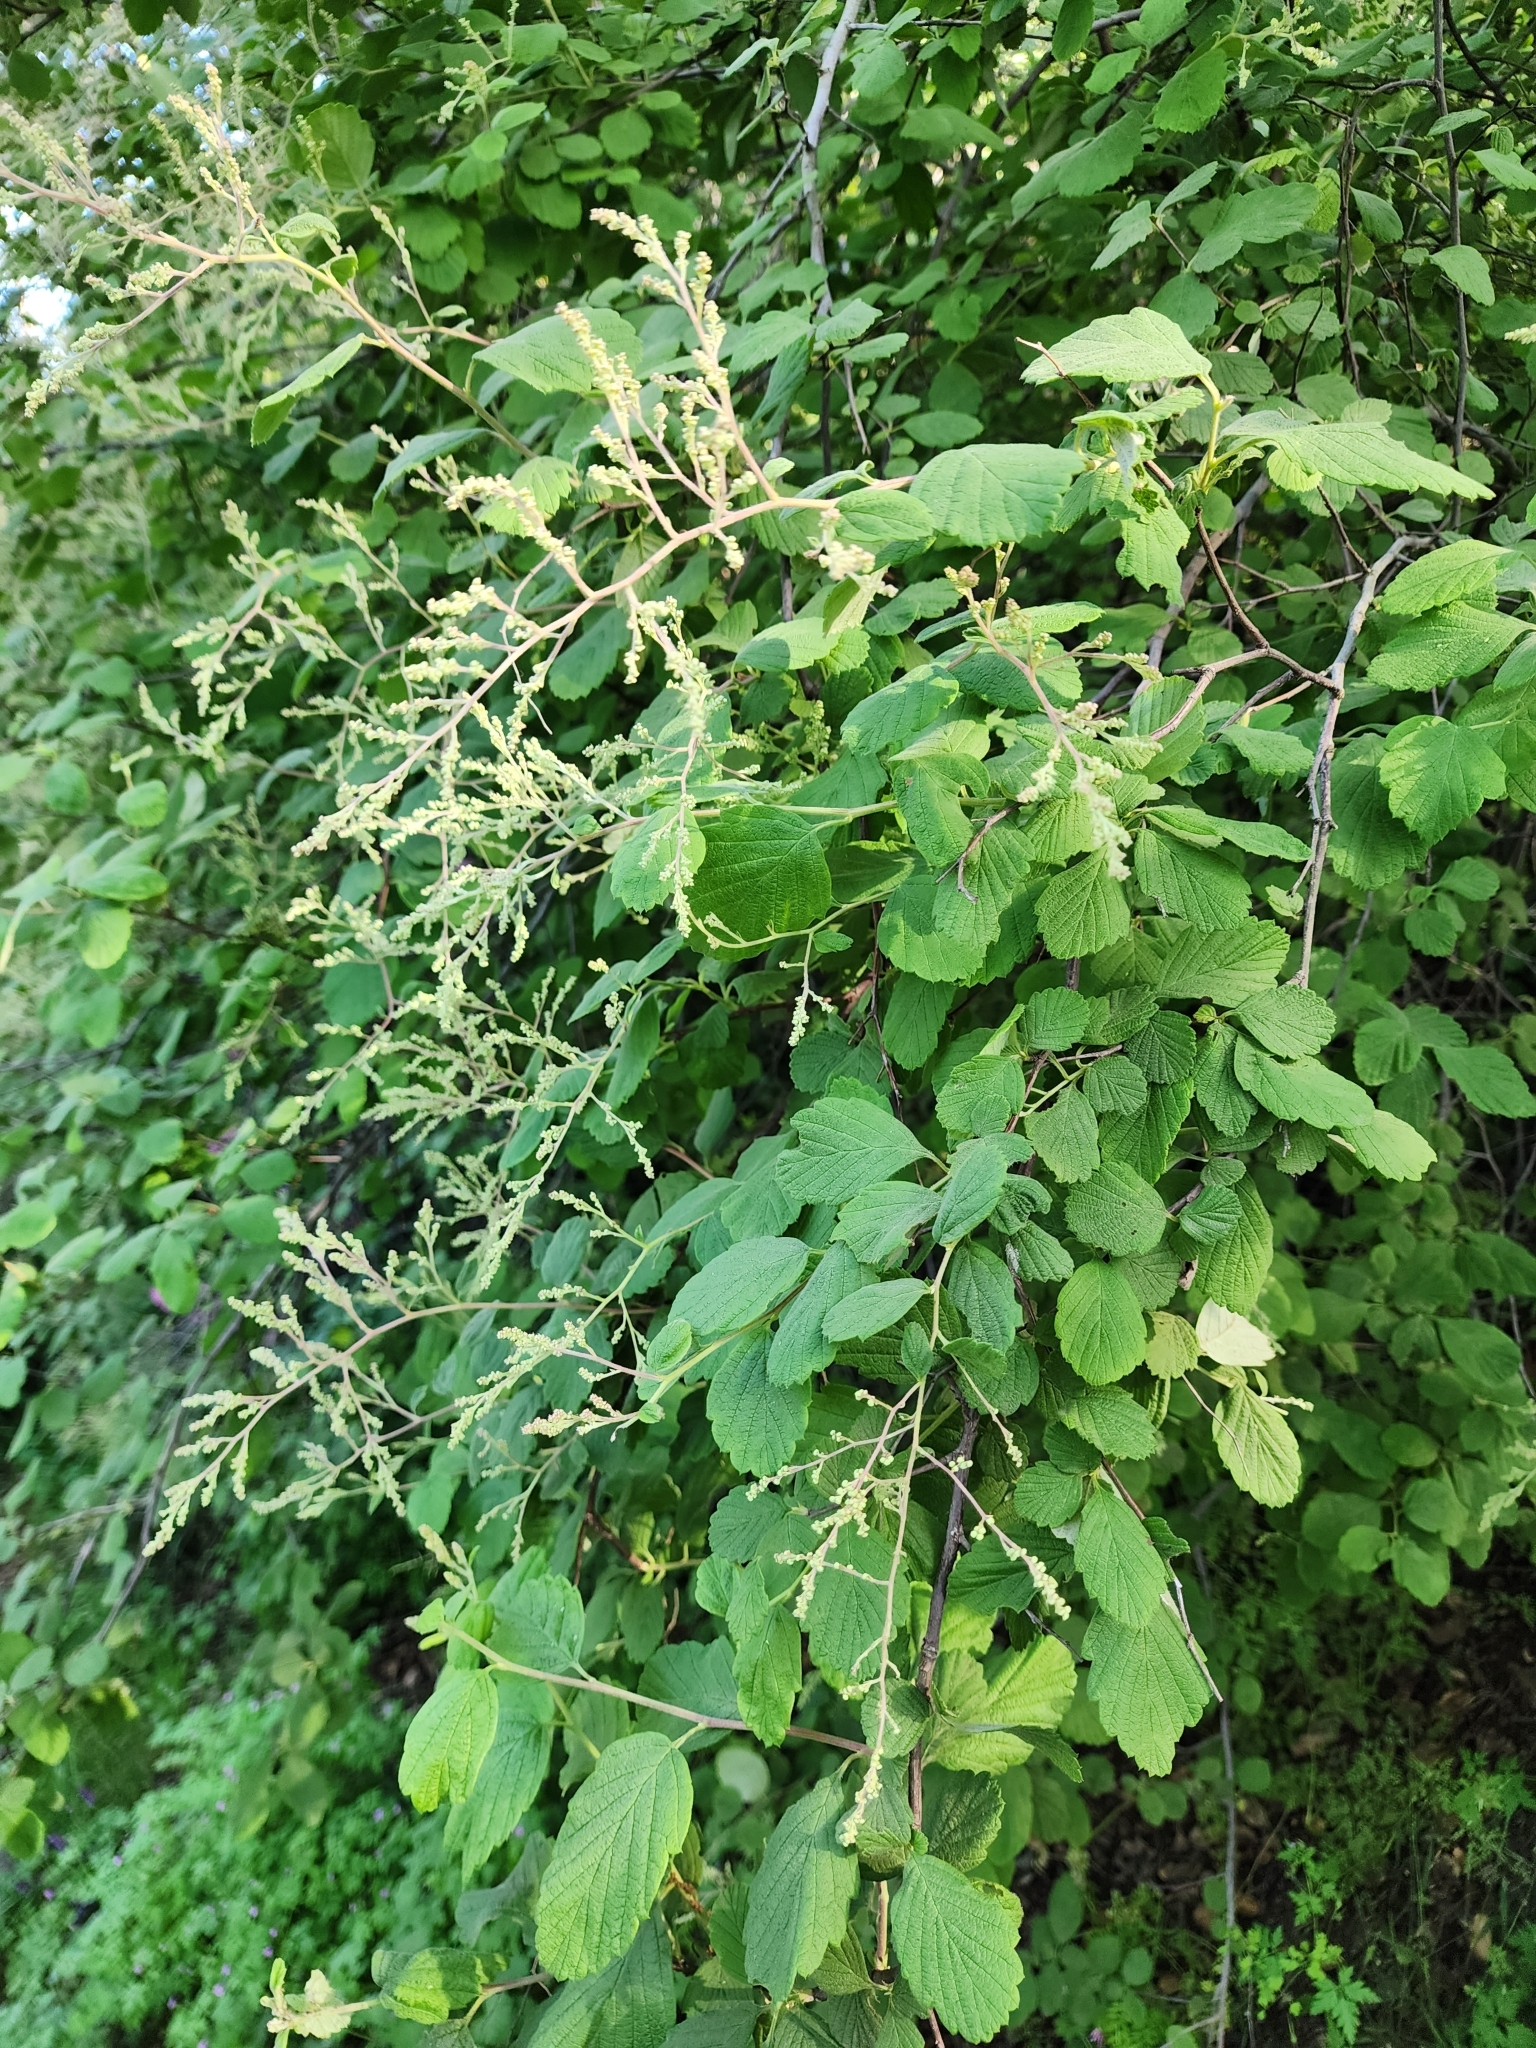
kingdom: Plantae
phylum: Tracheophyta
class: Magnoliopsida
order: Rosales
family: Rosaceae
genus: Holodiscus
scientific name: Holodiscus discolor
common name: Oceanspray
